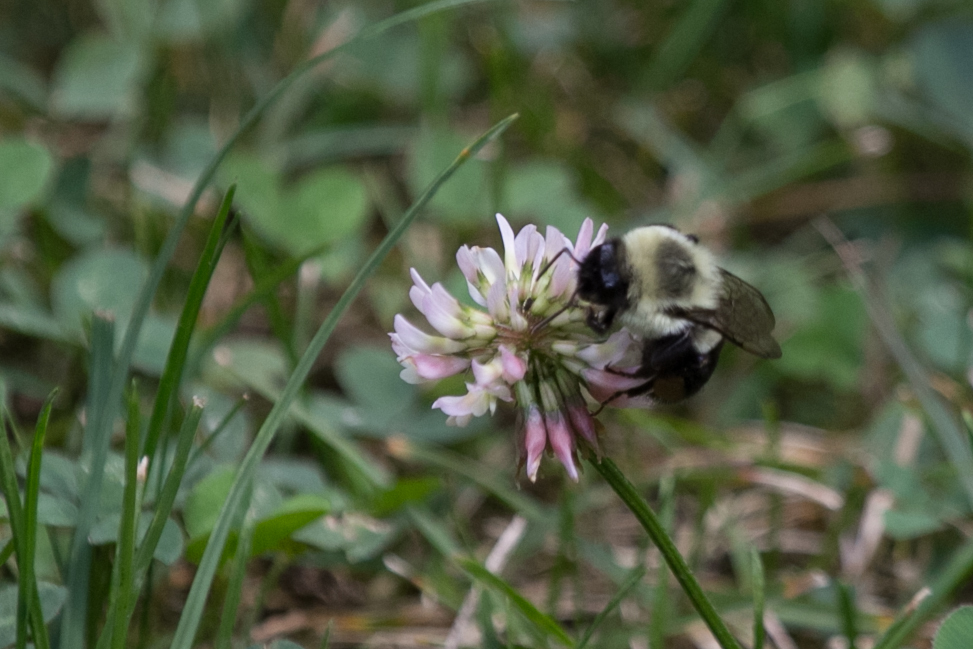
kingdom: Animalia
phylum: Arthropoda
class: Insecta
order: Hymenoptera
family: Apidae
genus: Bombus
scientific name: Bombus impatiens
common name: Common eastern bumble bee
